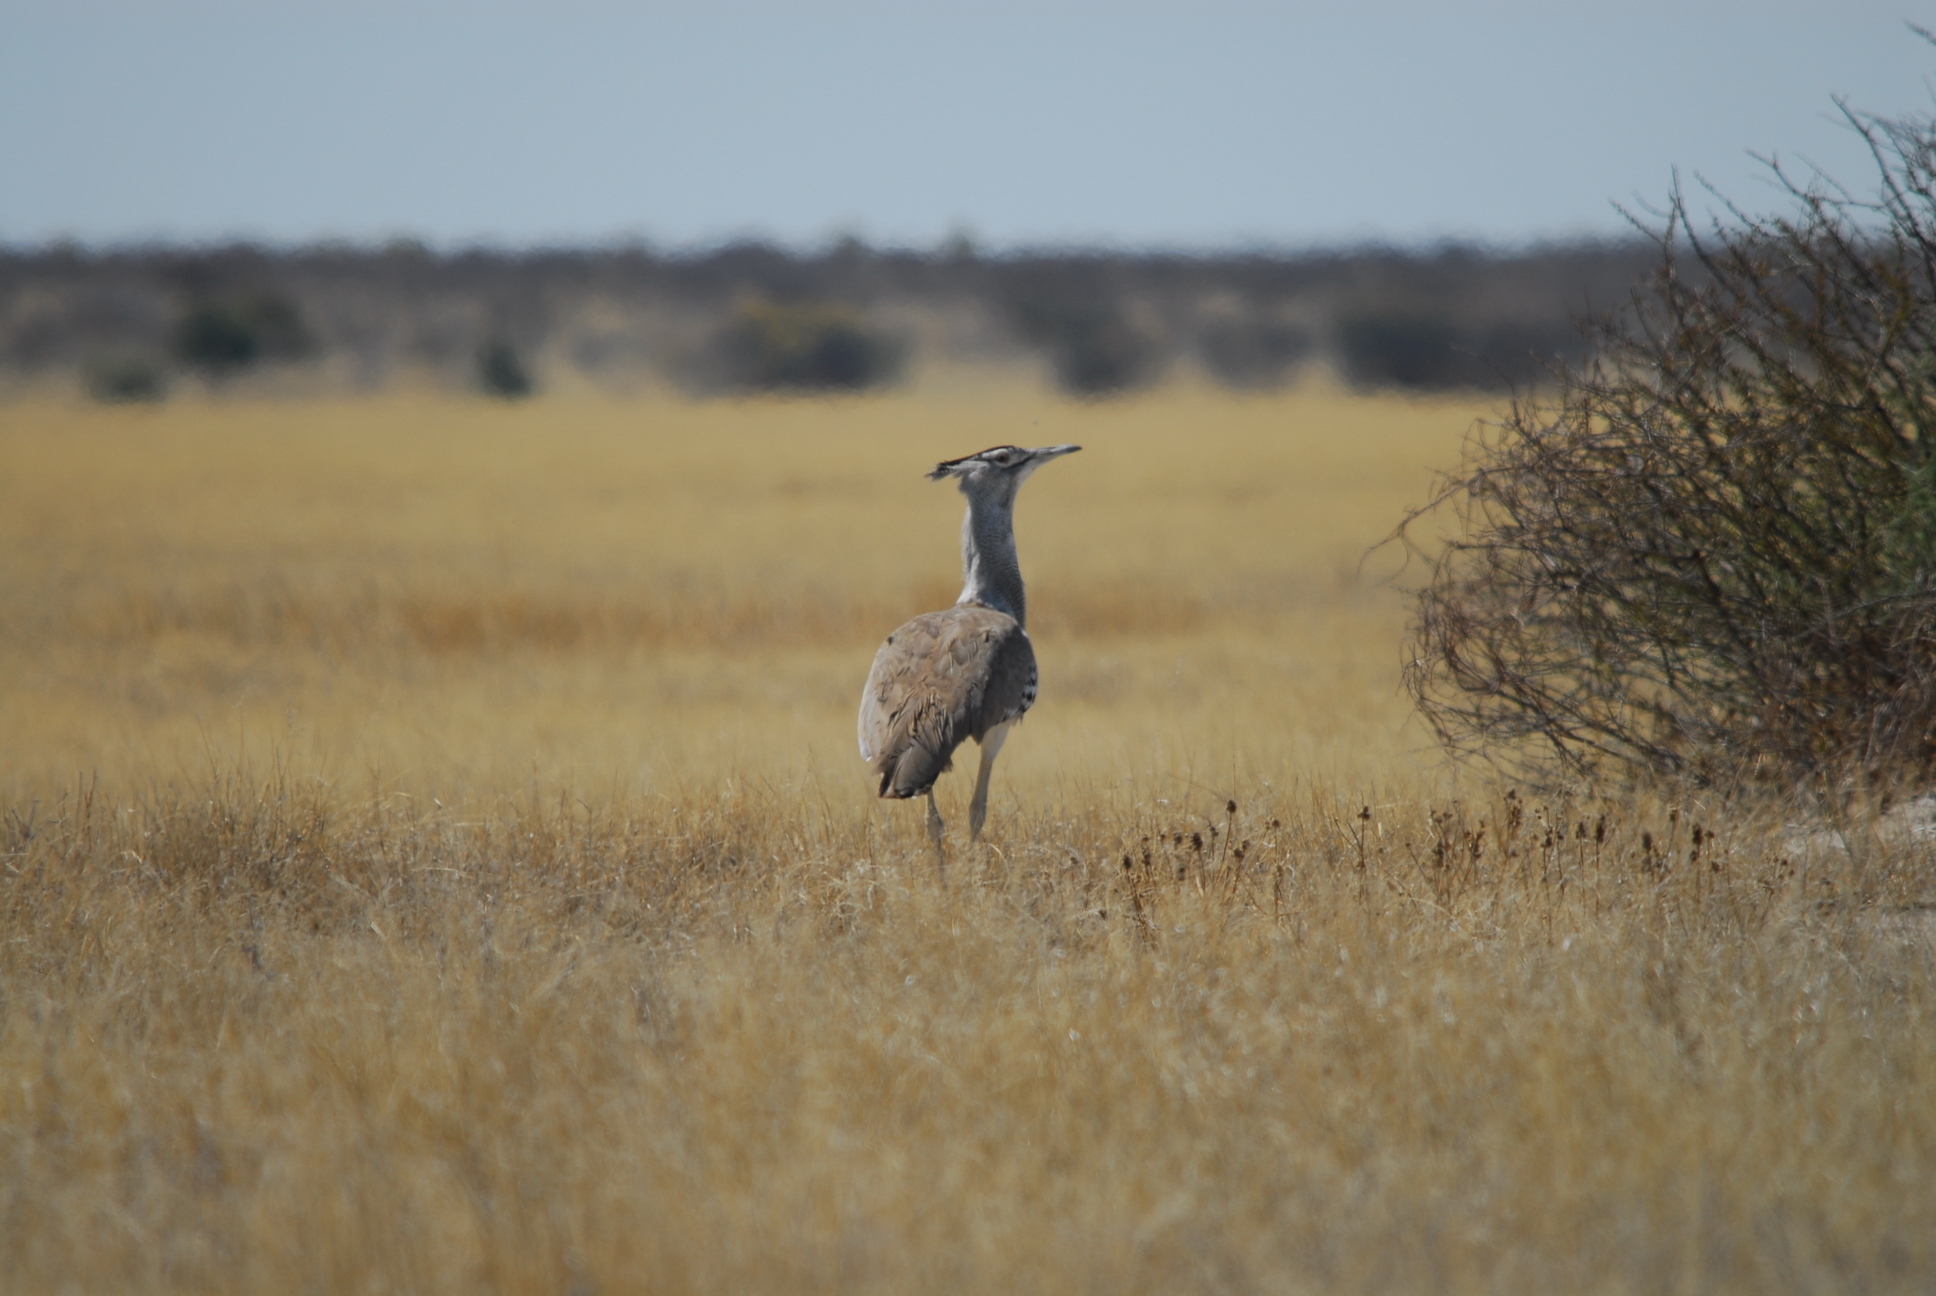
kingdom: Animalia
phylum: Chordata
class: Aves
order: Otidiformes
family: Otididae
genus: Ardeotis
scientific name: Ardeotis kori
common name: Kori bustard
